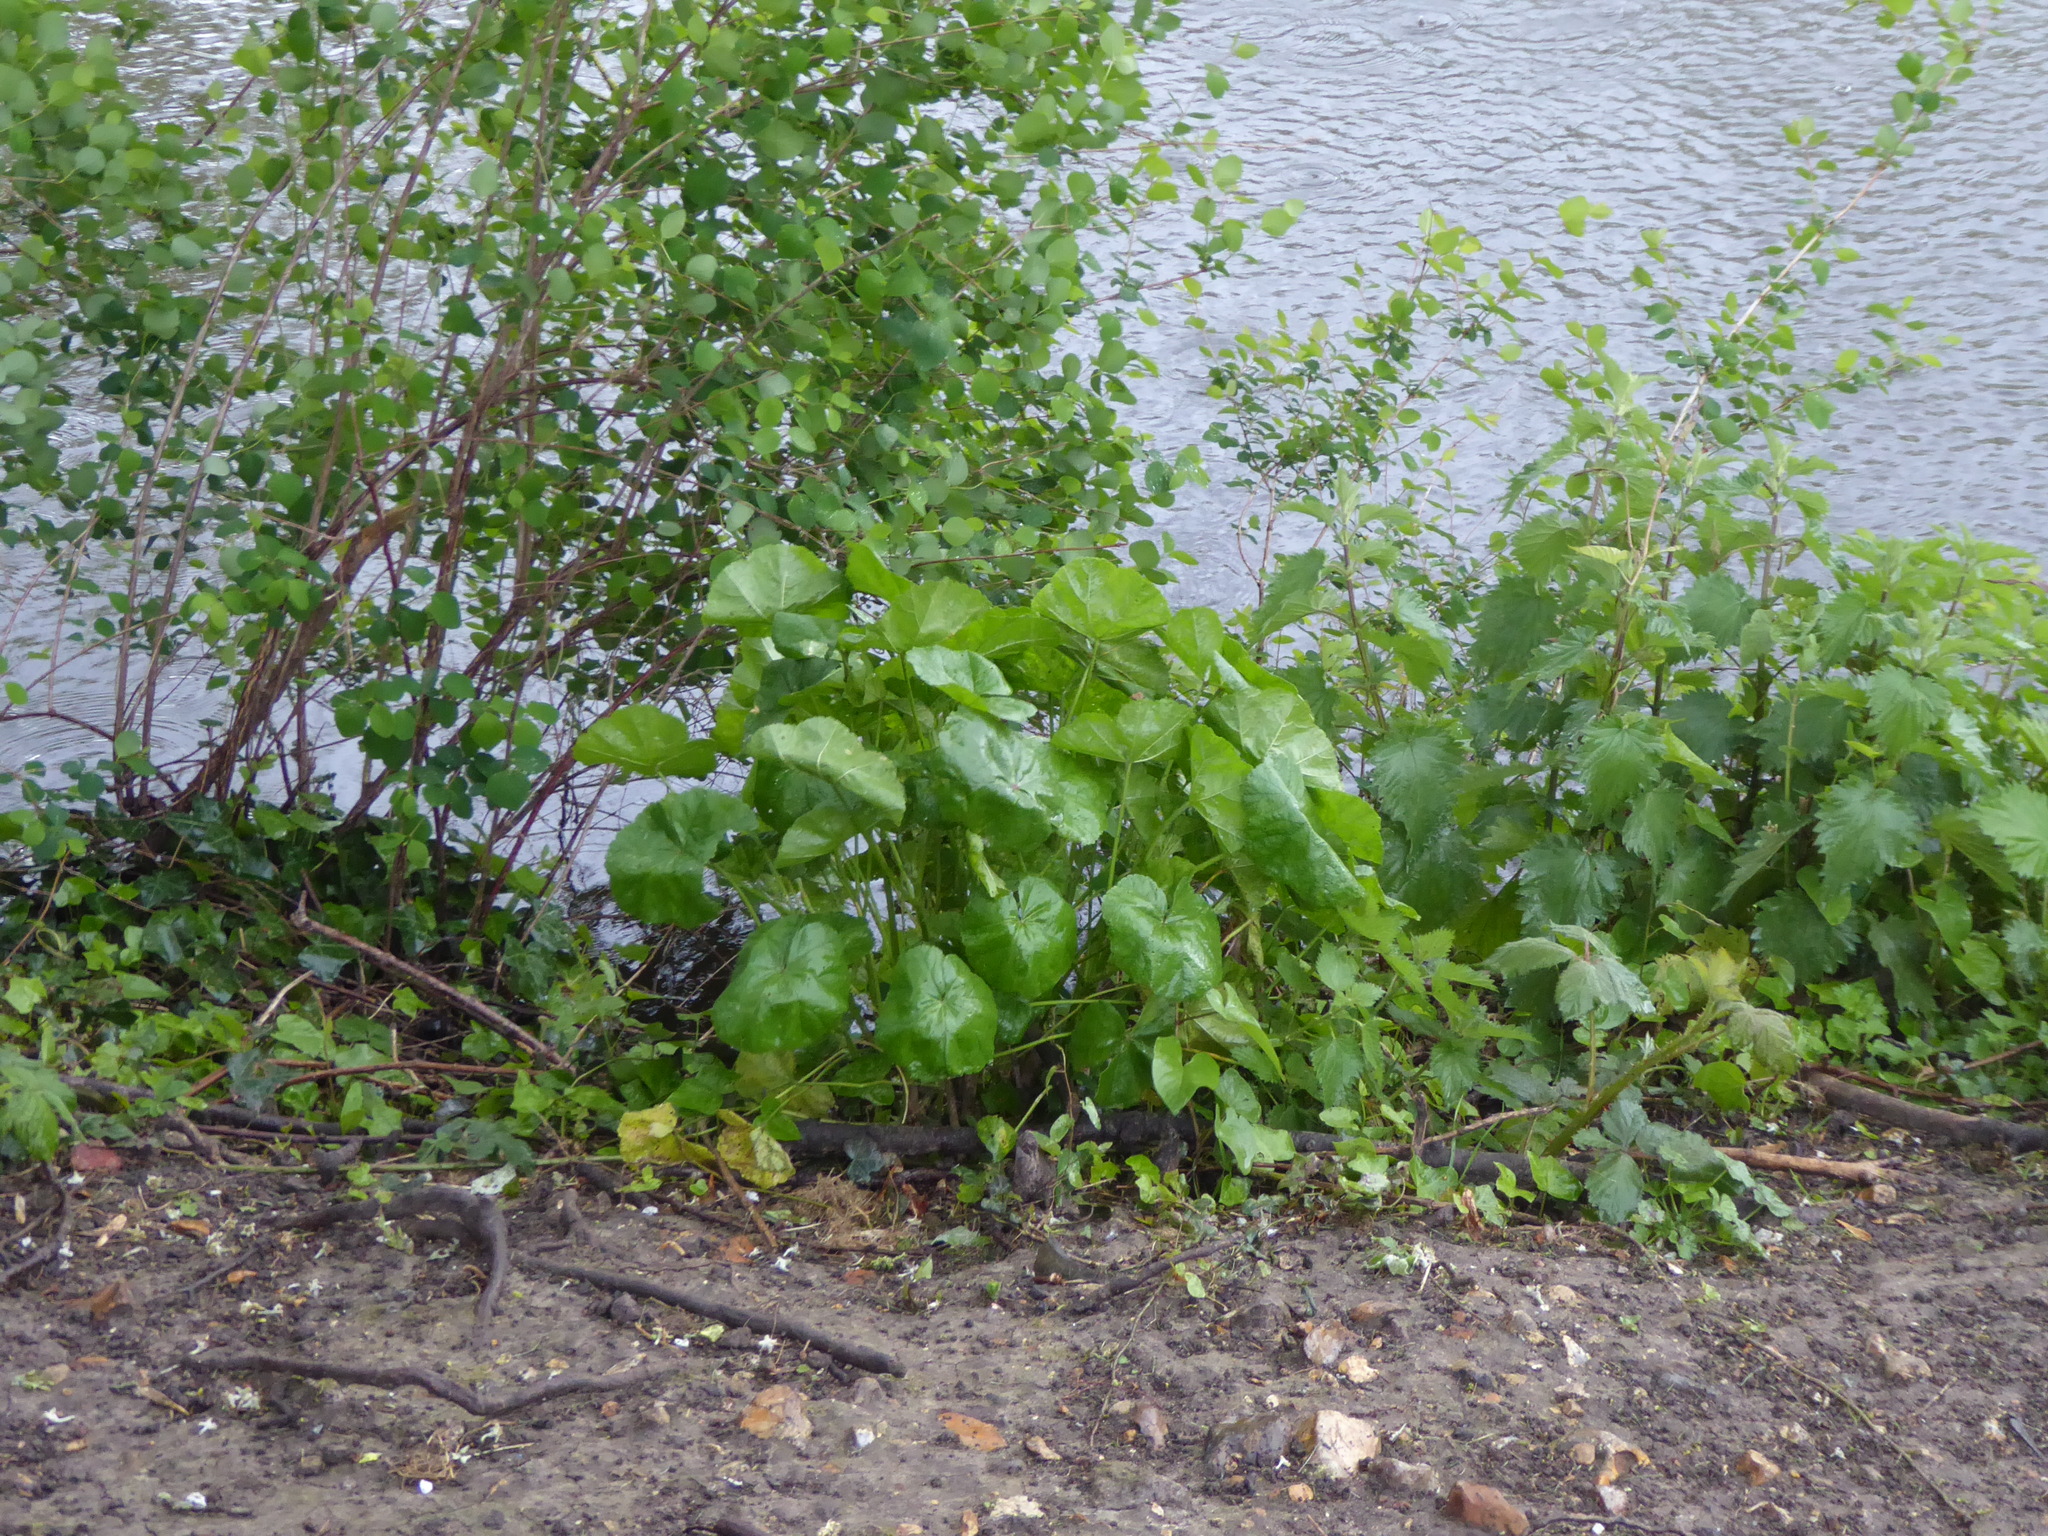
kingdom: Plantae
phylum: Tracheophyta
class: Magnoliopsida
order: Ranunculales
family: Ranunculaceae
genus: Caltha
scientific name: Caltha palustris
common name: Marsh marigold
